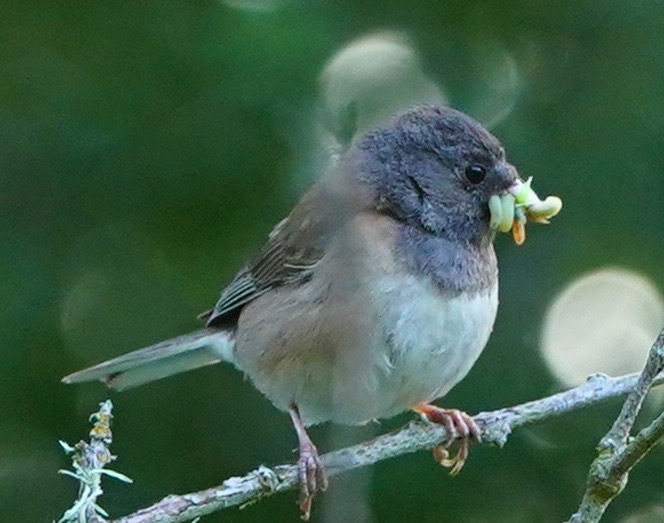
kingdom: Animalia
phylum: Chordata
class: Aves
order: Passeriformes
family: Passerellidae
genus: Junco
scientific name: Junco hyemalis
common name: Dark-eyed junco
